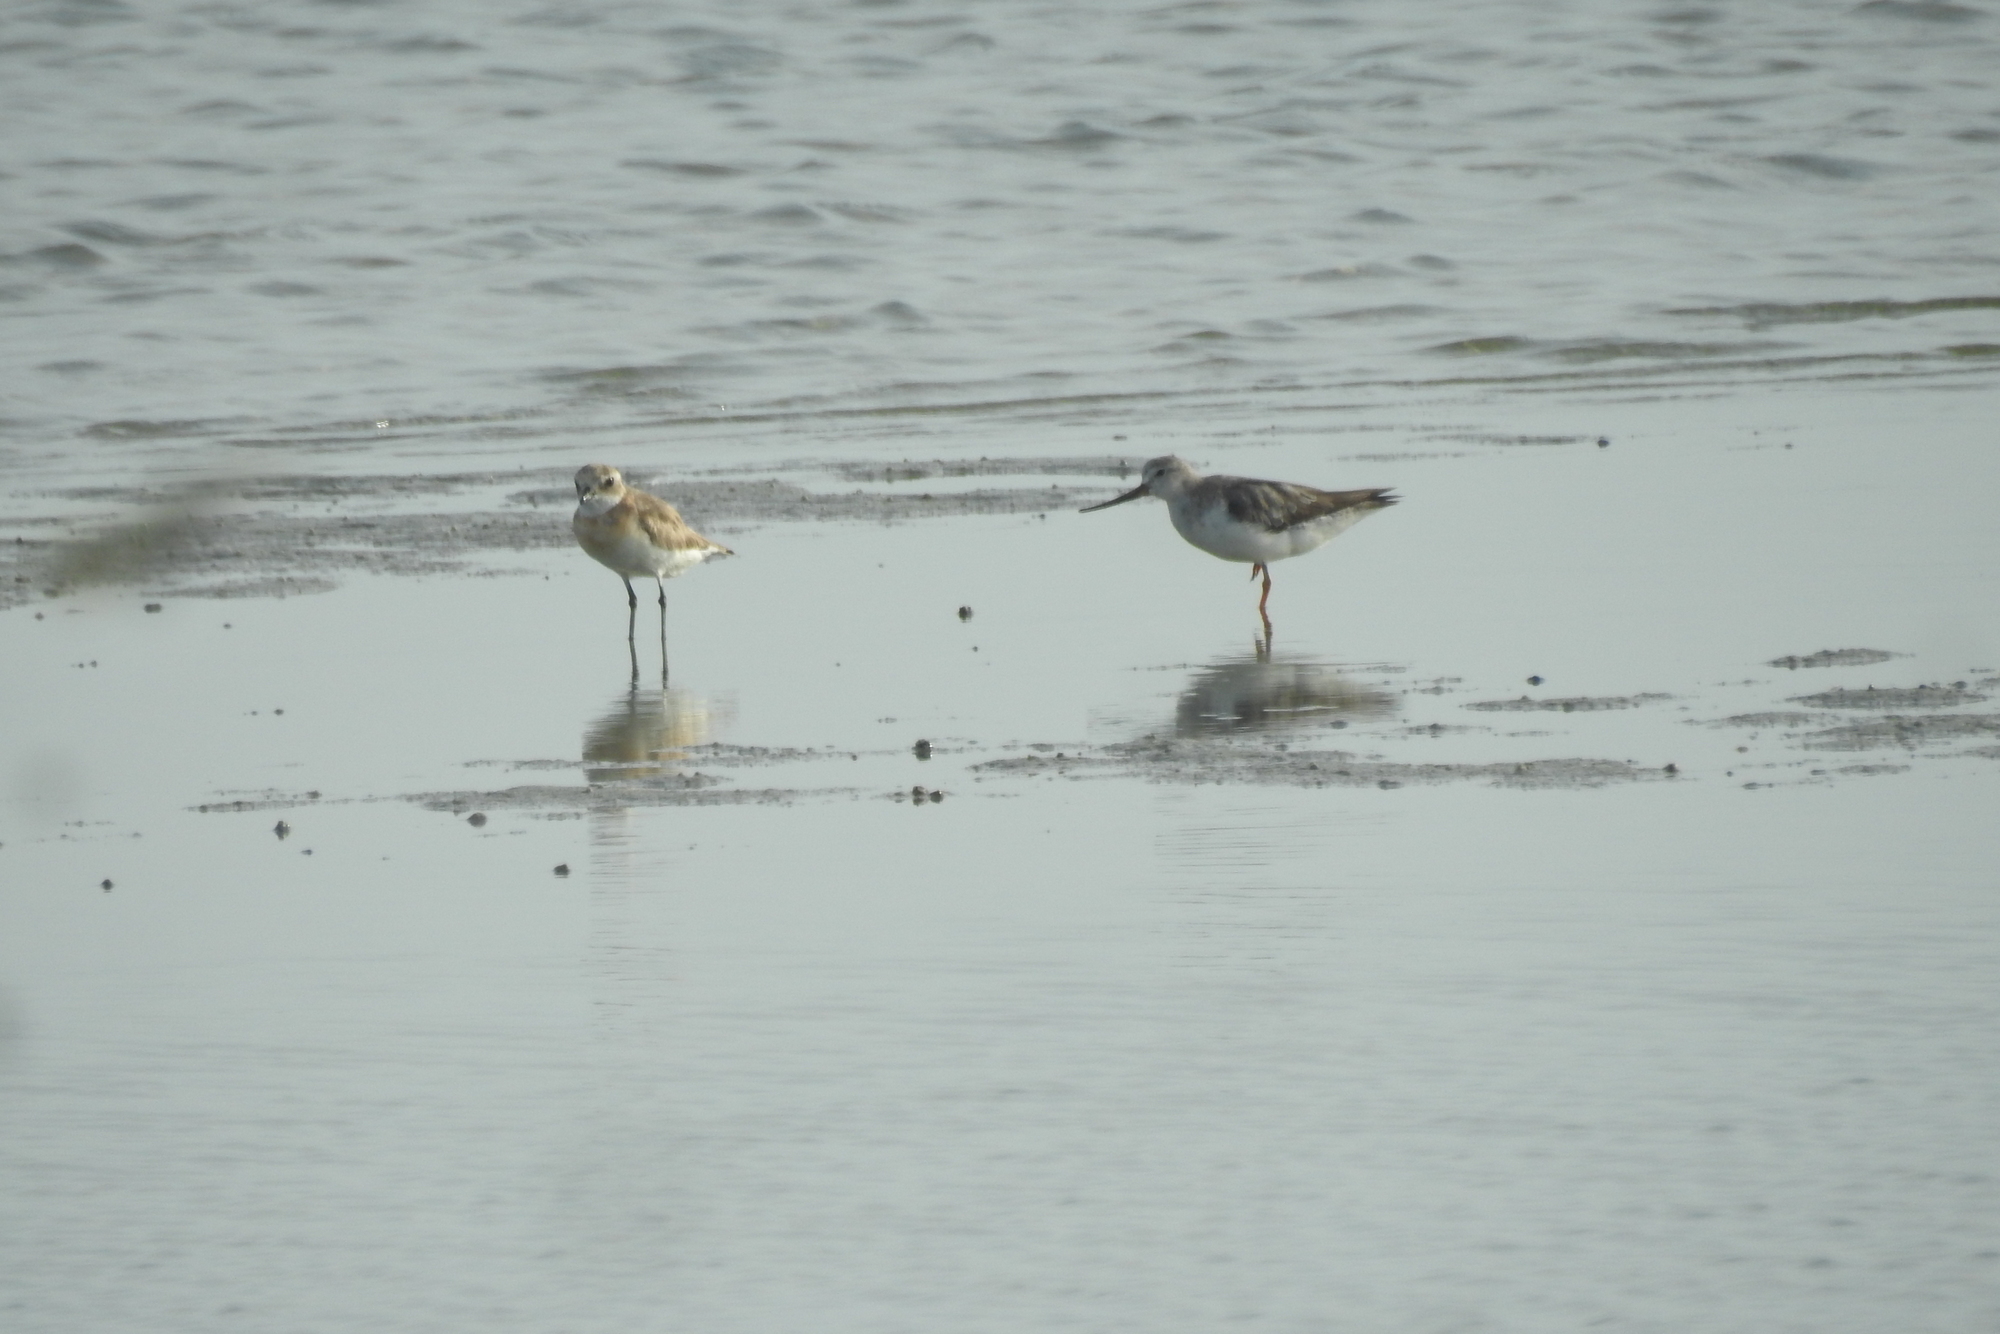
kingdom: Animalia
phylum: Chordata
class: Aves
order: Charadriiformes
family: Scolopacidae
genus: Xenus
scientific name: Xenus cinereus
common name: Terek sandpiper
